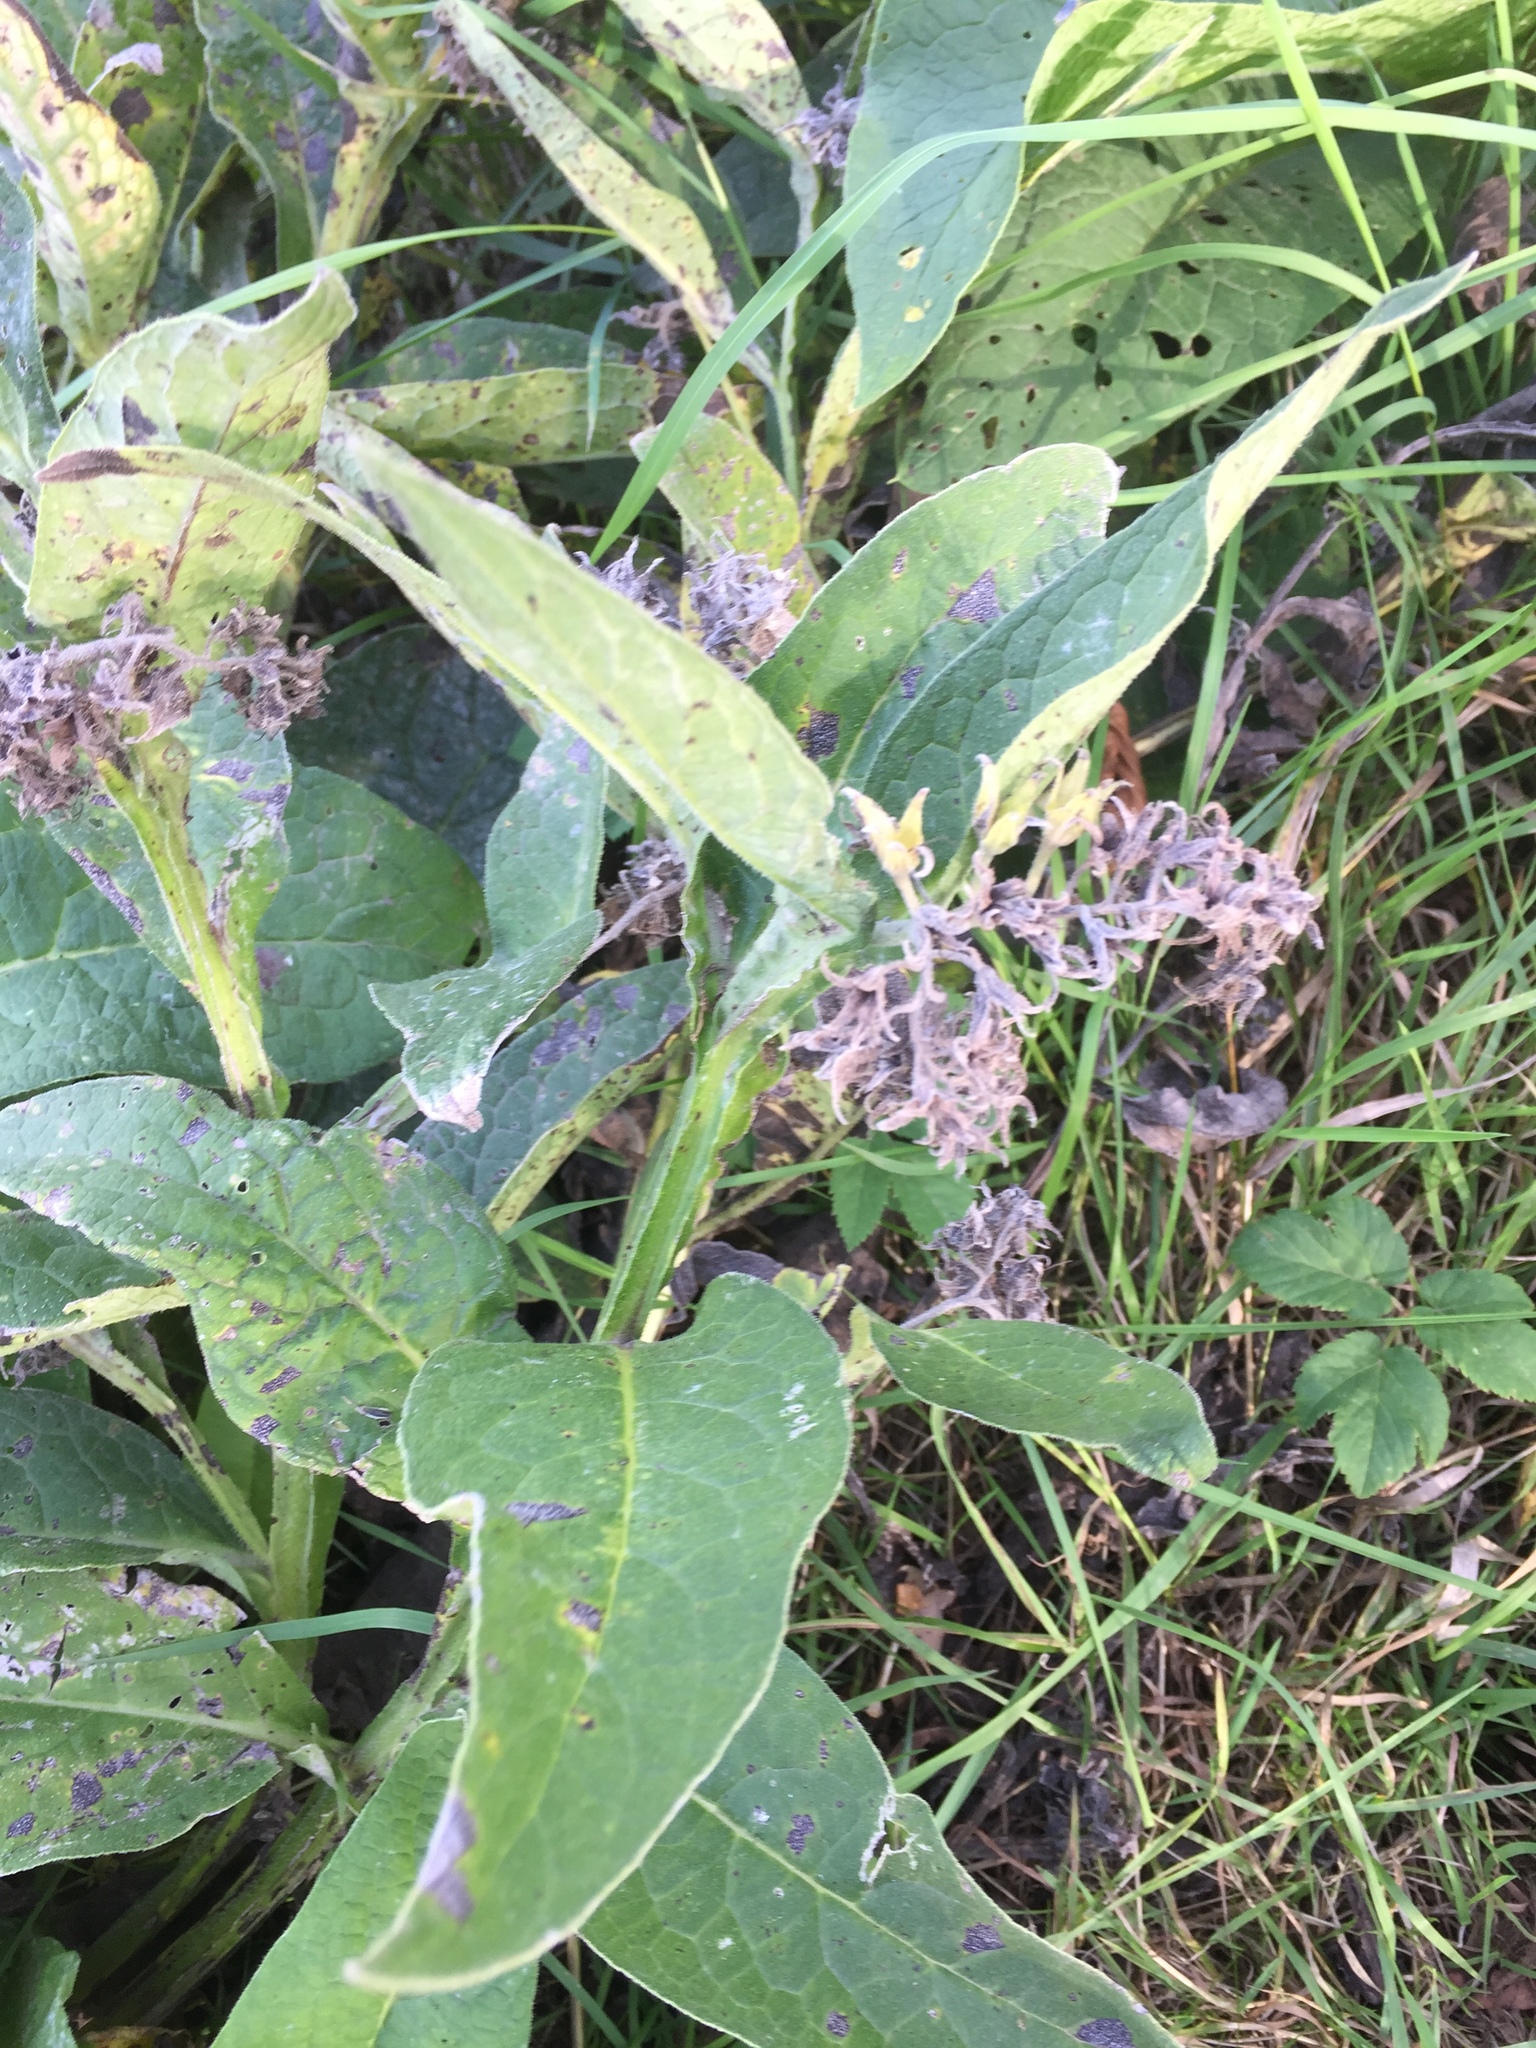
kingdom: Plantae
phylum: Tracheophyta
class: Magnoliopsida
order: Boraginales
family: Boraginaceae
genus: Symphytum
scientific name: Symphytum officinale
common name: Common comfrey
